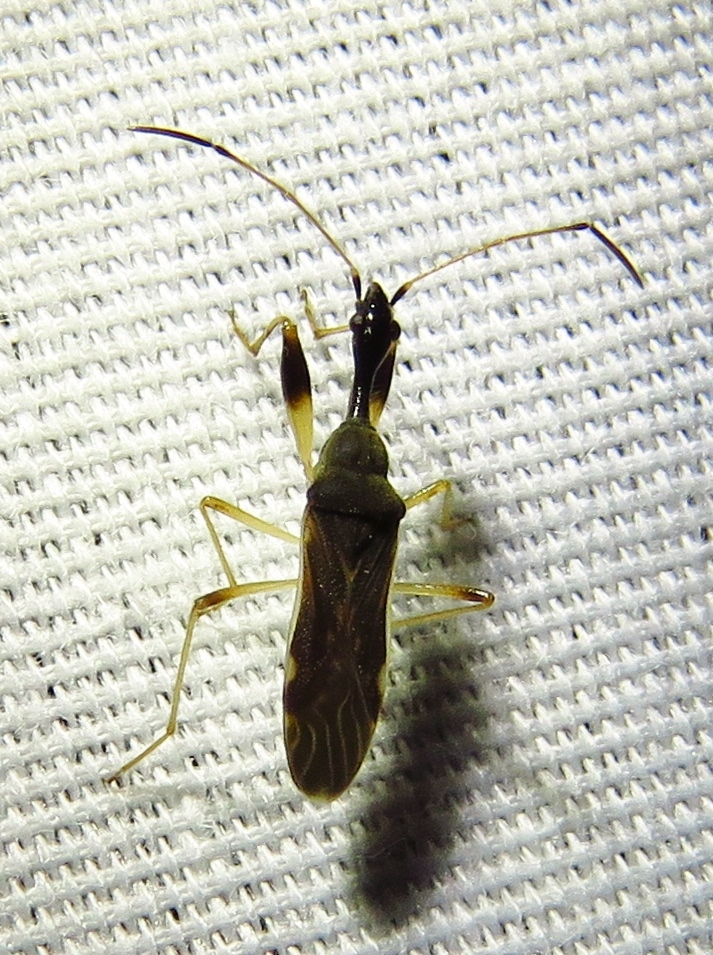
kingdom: Animalia
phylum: Arthropoda
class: Insecta
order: Hemiptera
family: Rhyparochromidae
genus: Myodocha
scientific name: Myodocha serripes
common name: Long-necked seed bug
